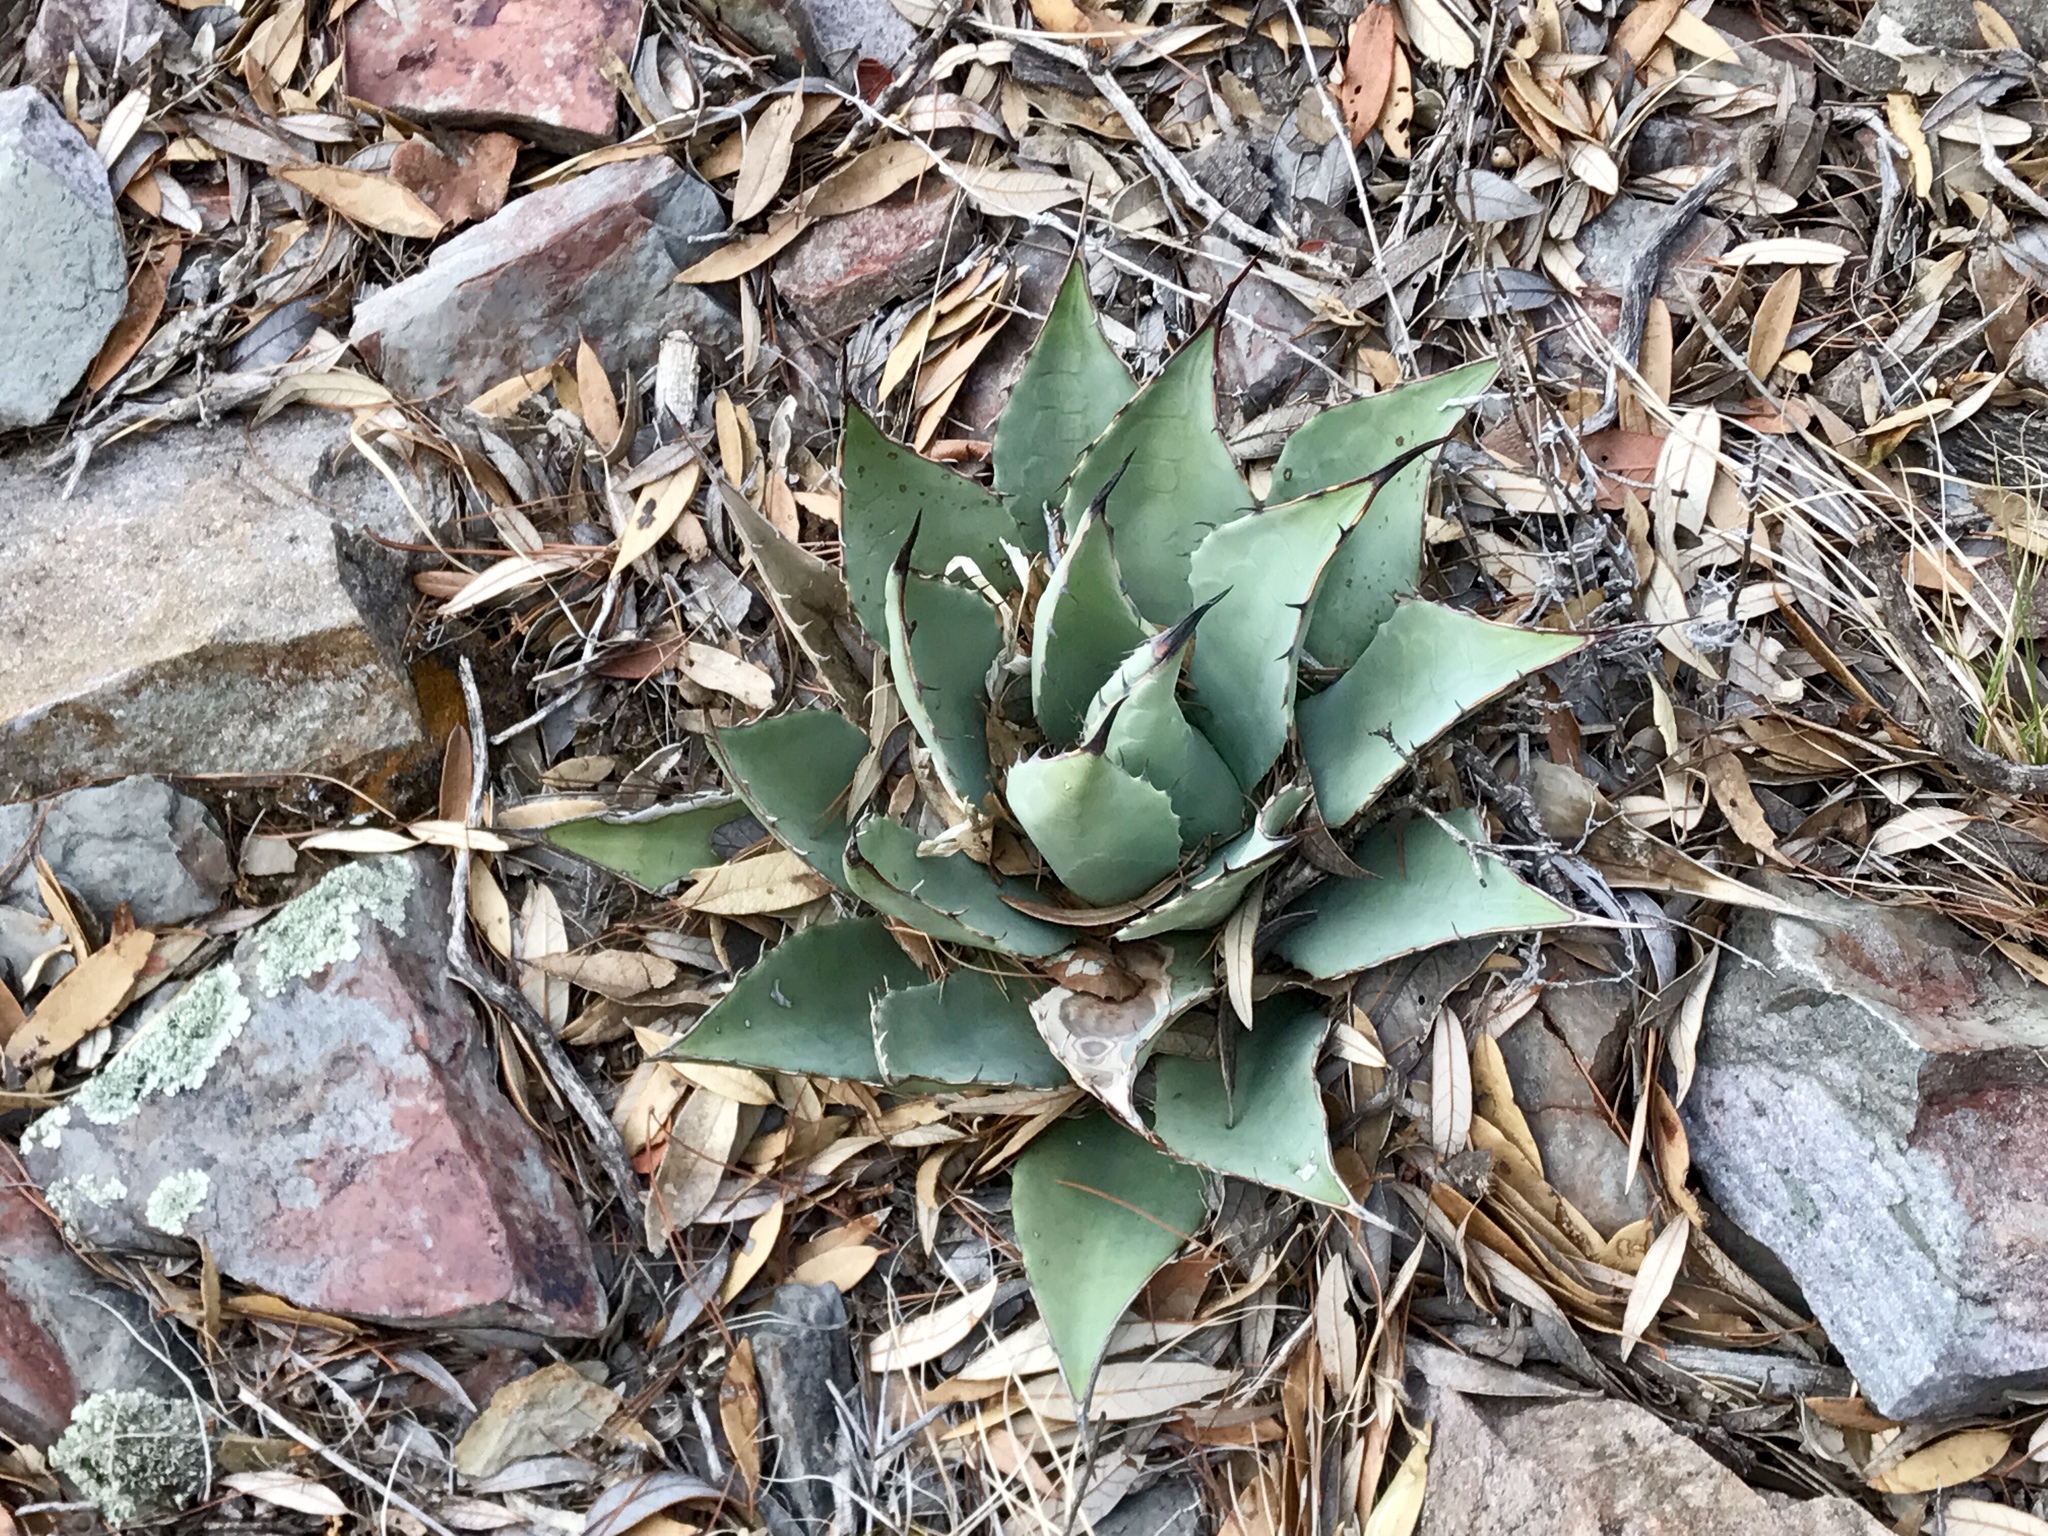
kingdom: Plantae
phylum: Tracheophyta
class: Liliopsida
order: Asparagales
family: Asparagaceae
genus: Agave
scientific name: Agave parryi
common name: Parry's agave
